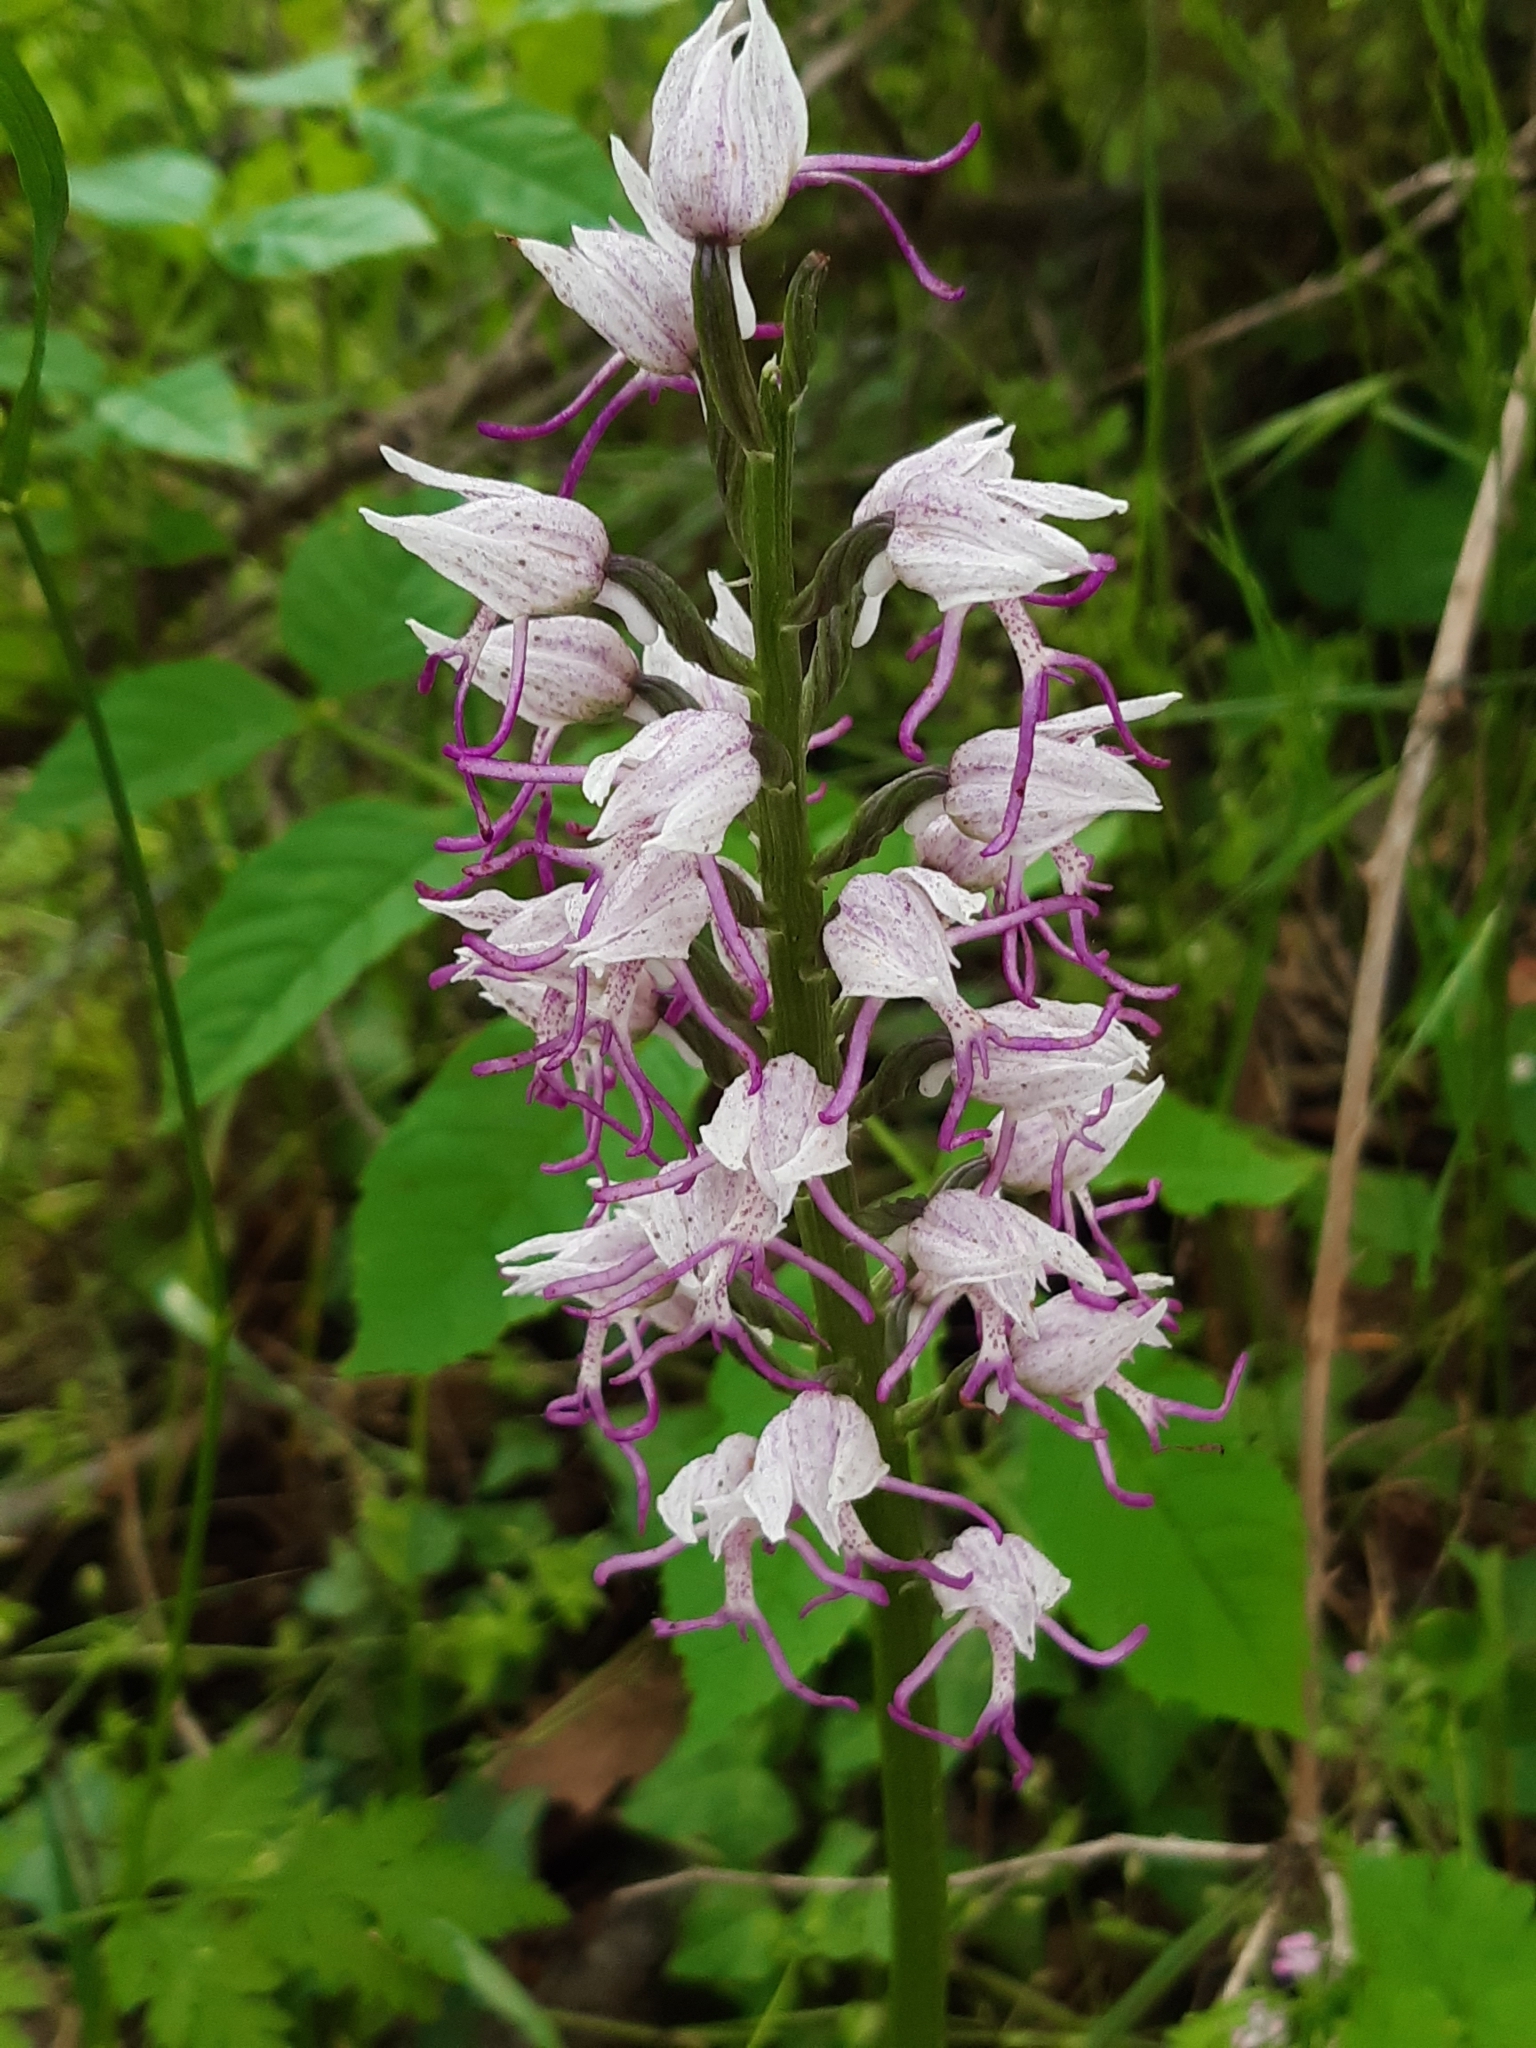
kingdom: Plantae
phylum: Tracheophyta
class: Liliopsida
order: Asparagales
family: Orchidaceae
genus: Orchis
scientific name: Orchis simia
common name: Monkey orchid
